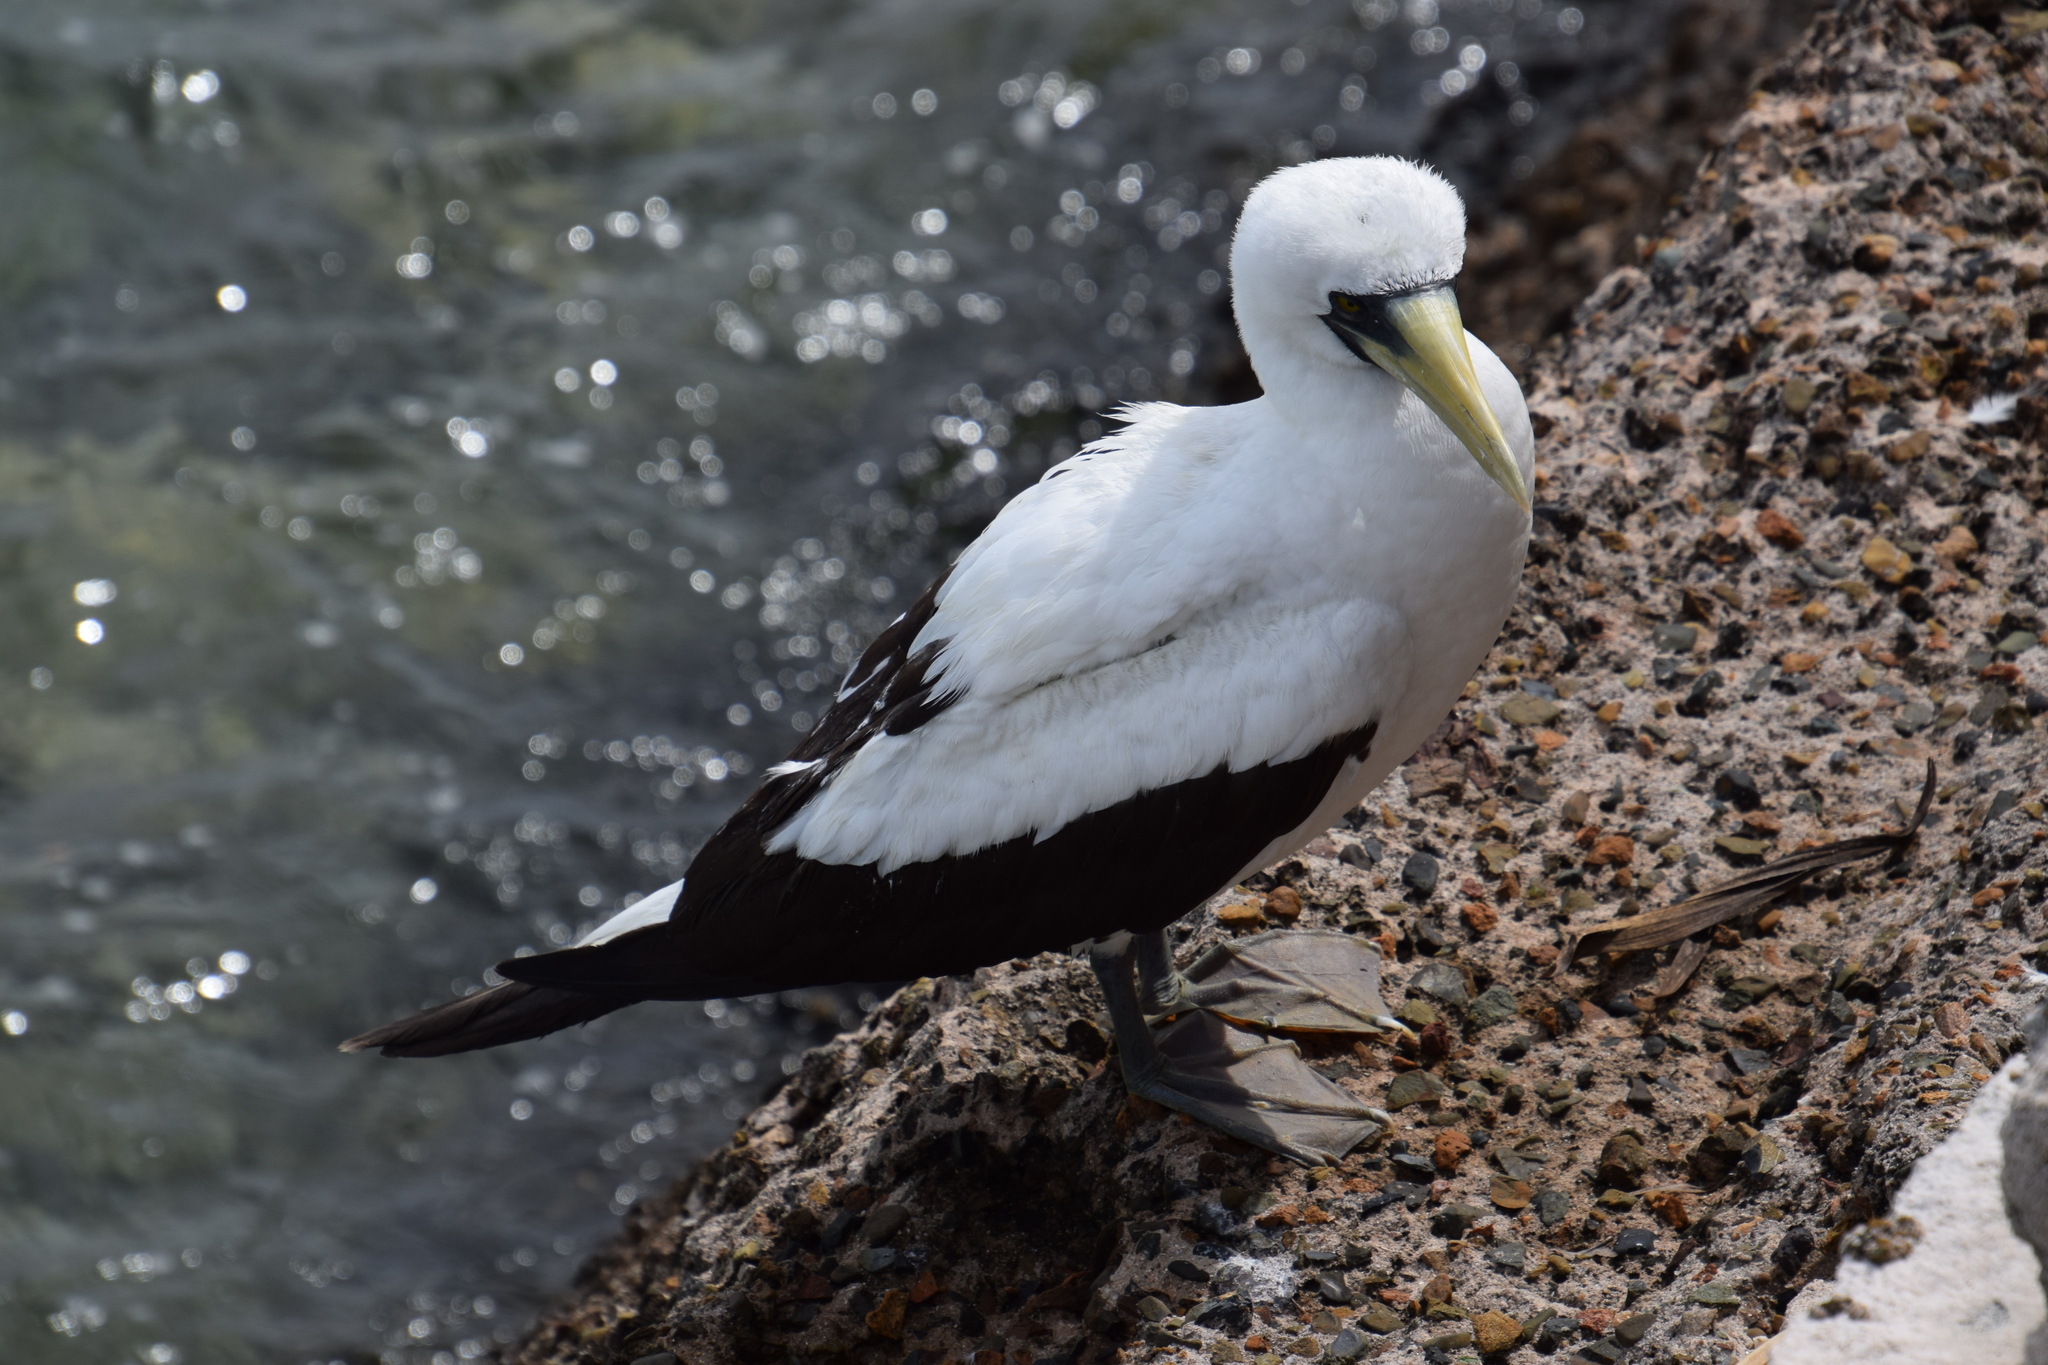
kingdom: Animalia
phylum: Chordata
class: Aves
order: Suliformes
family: Sulidae
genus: Sula
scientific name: Sula dactylatra
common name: Masked booby
